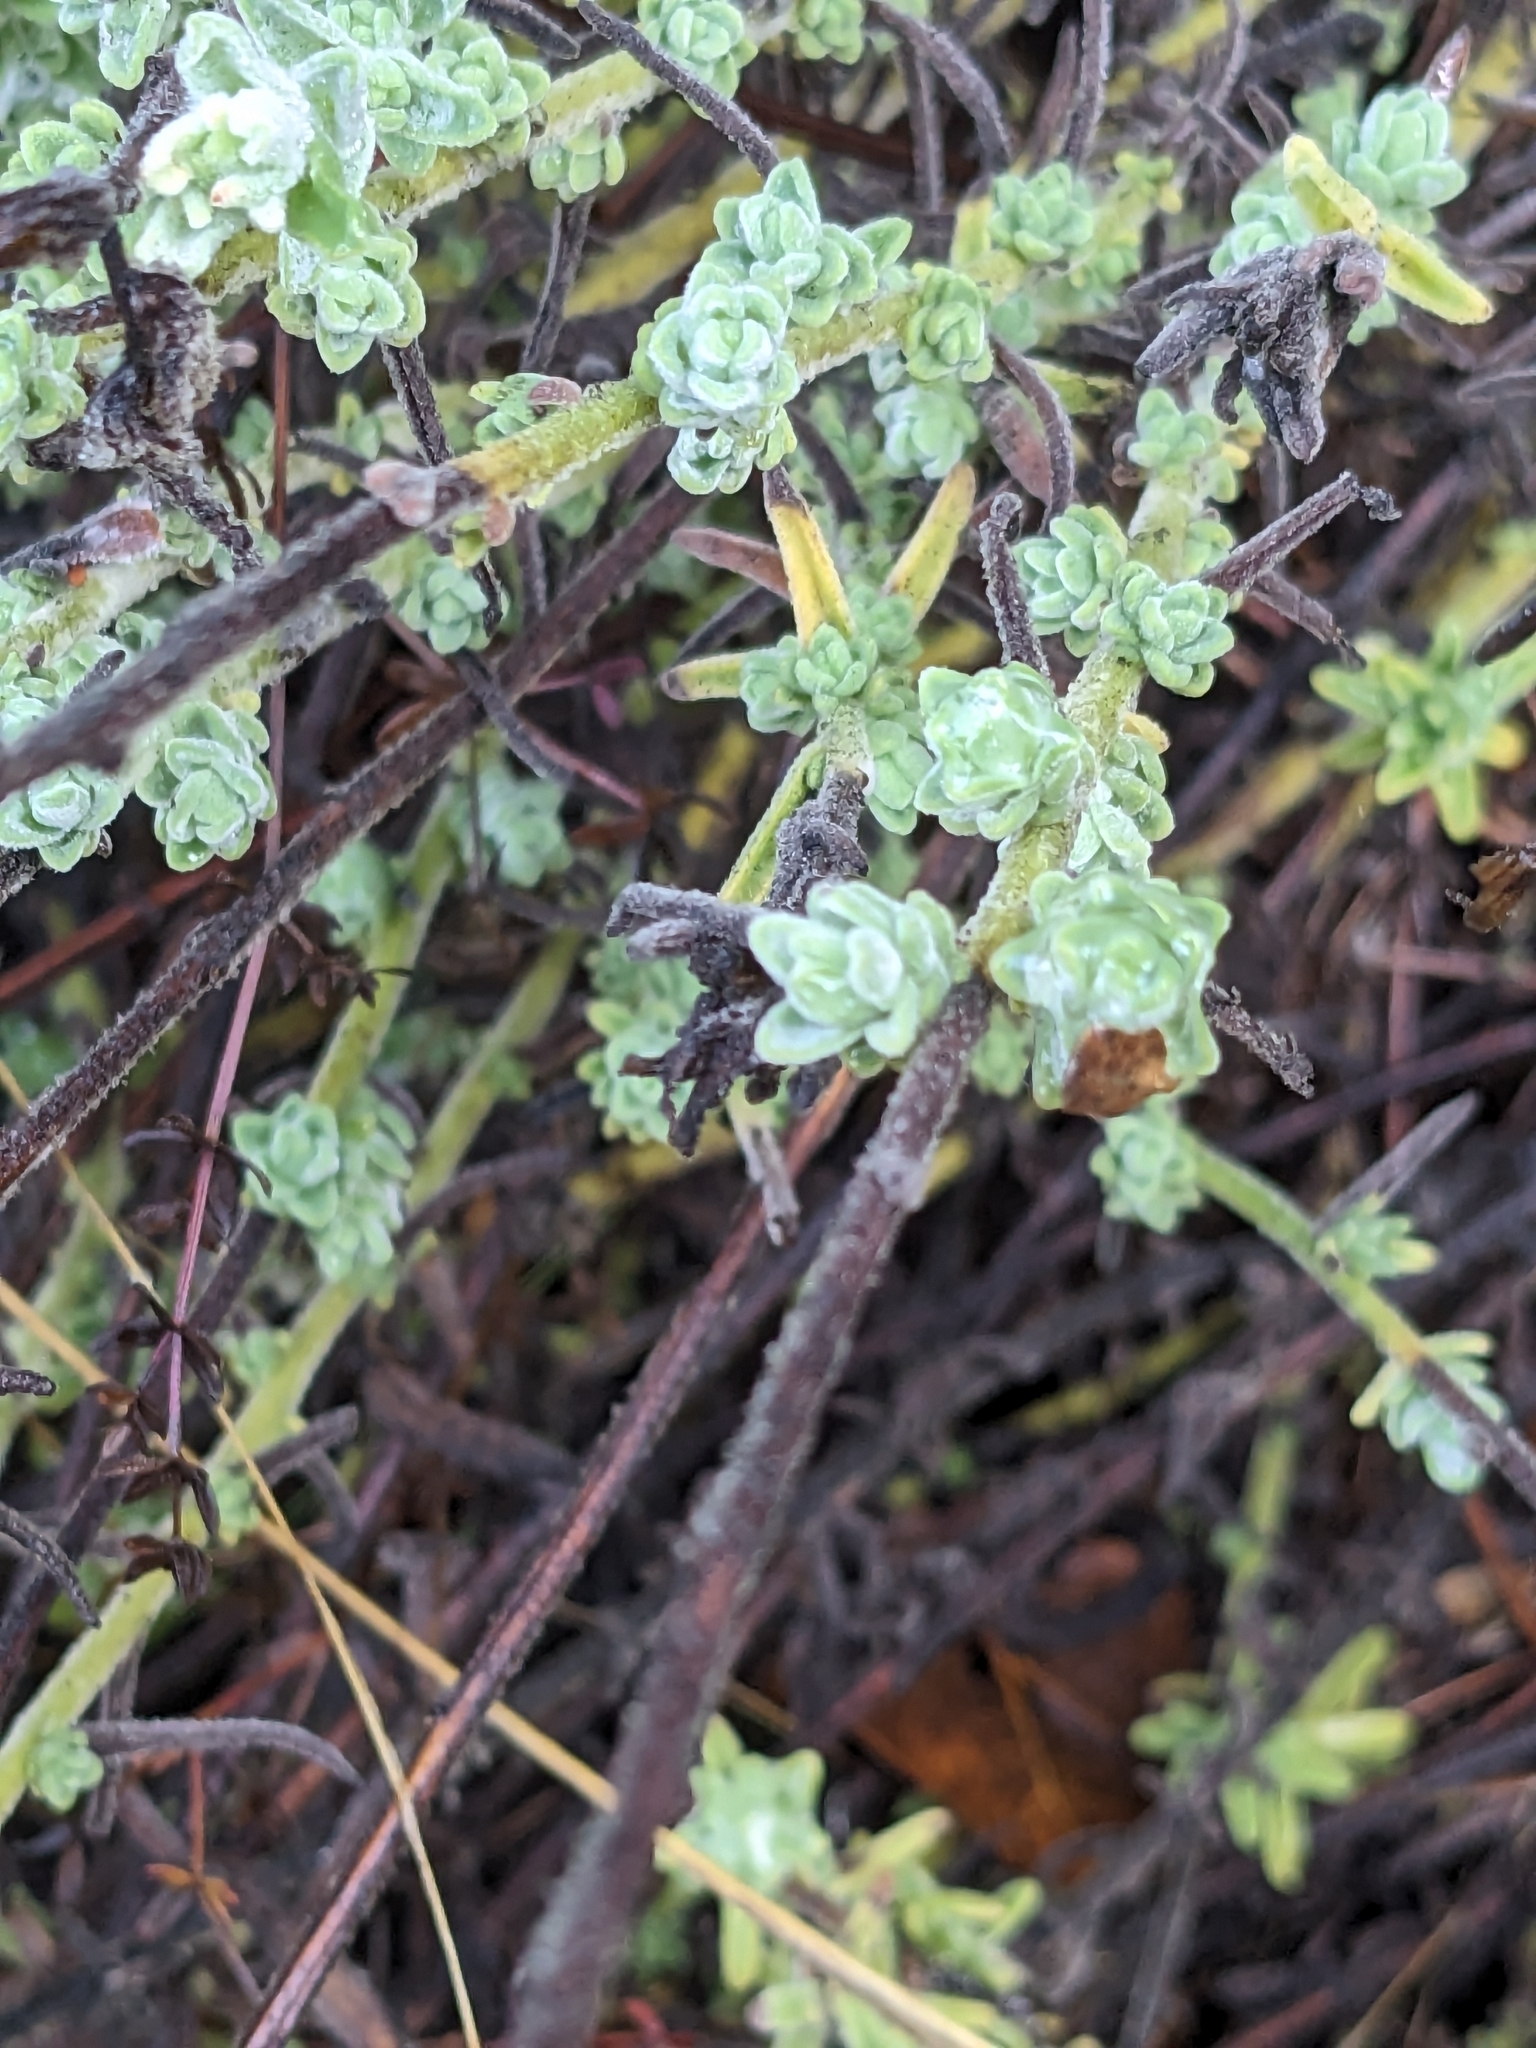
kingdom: Plantae
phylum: Tracheophyta
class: Magnoliopsida
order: Lamiales
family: Orobanchaceae
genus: Castilleja
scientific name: Castilleja foliolosa
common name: Woolly indian paintbrush
